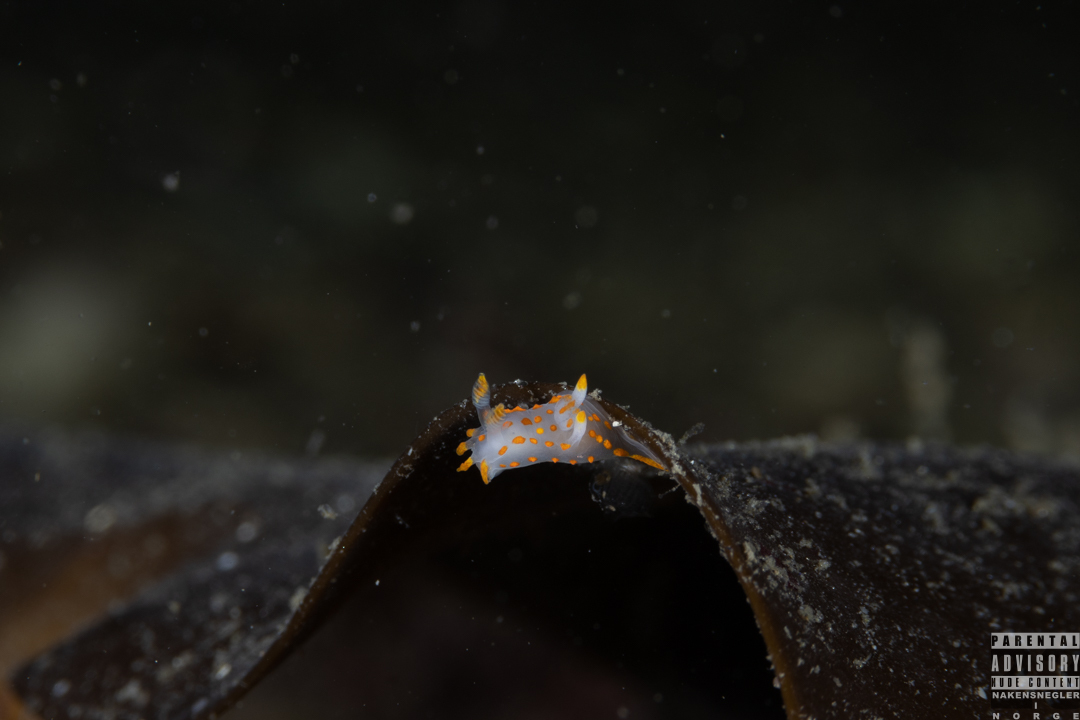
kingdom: Animalia
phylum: Mollusca
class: Gastropoda
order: Nudibranchia
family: Polyceridae
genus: Polycera
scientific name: Polycera quadrilineata
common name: Four-striped polycera
